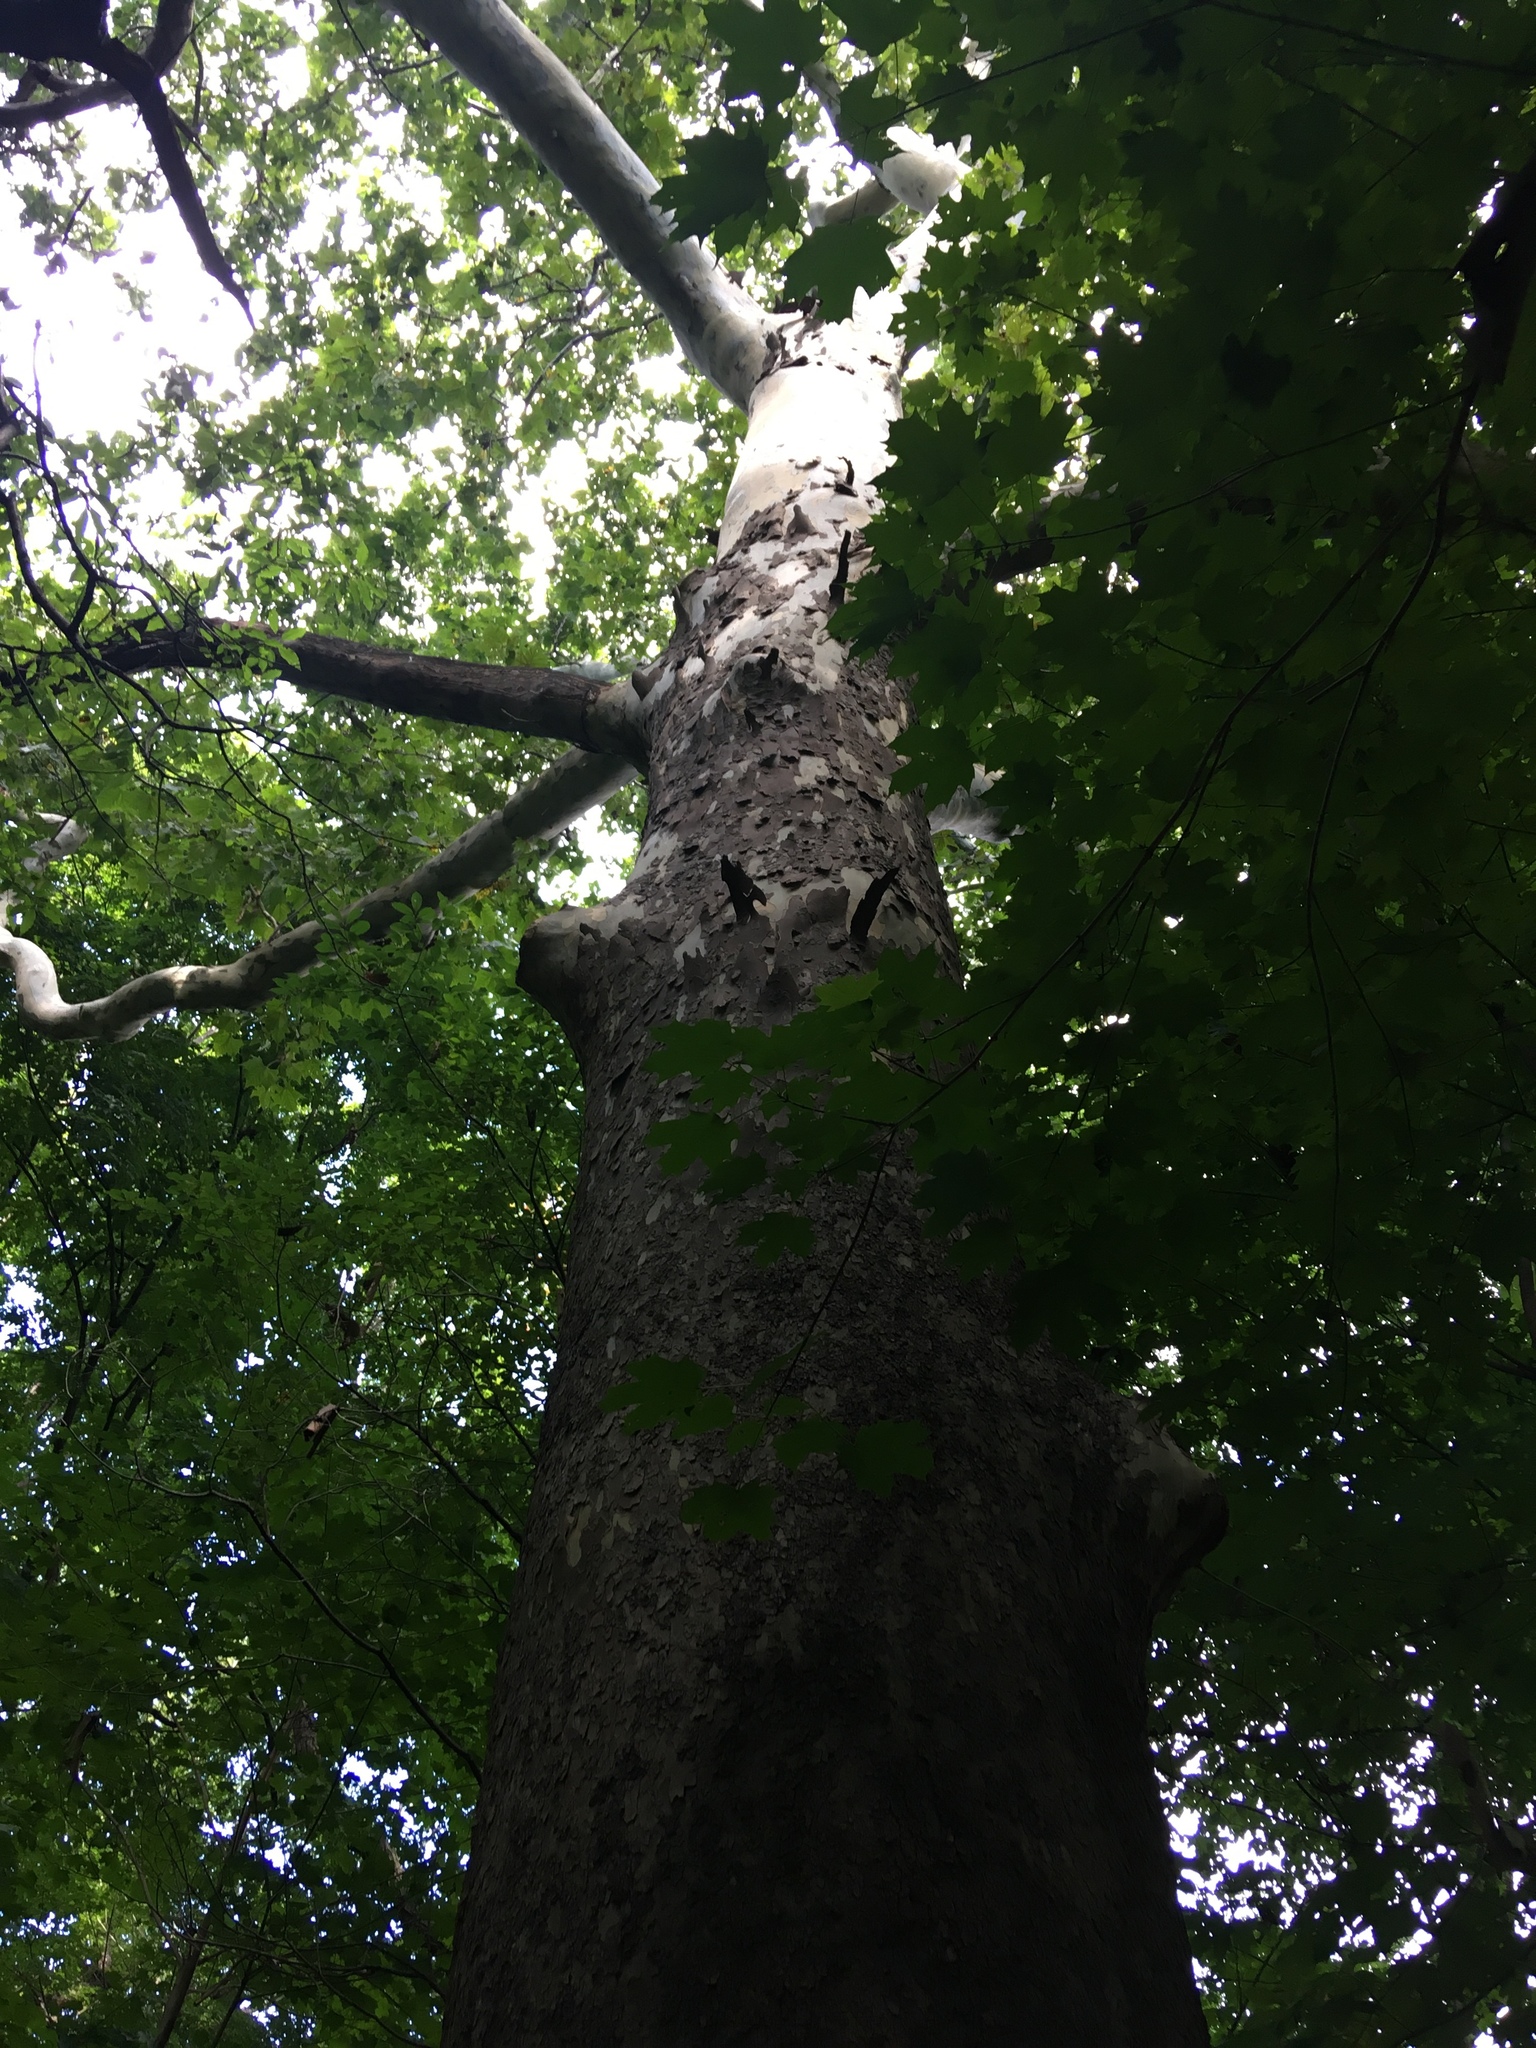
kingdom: Plantae
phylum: Tracheophyta
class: Magnoliopsida
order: Proteales
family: Platanaceae
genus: Platanus
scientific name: Platanus occidentalis
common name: American sycamore
